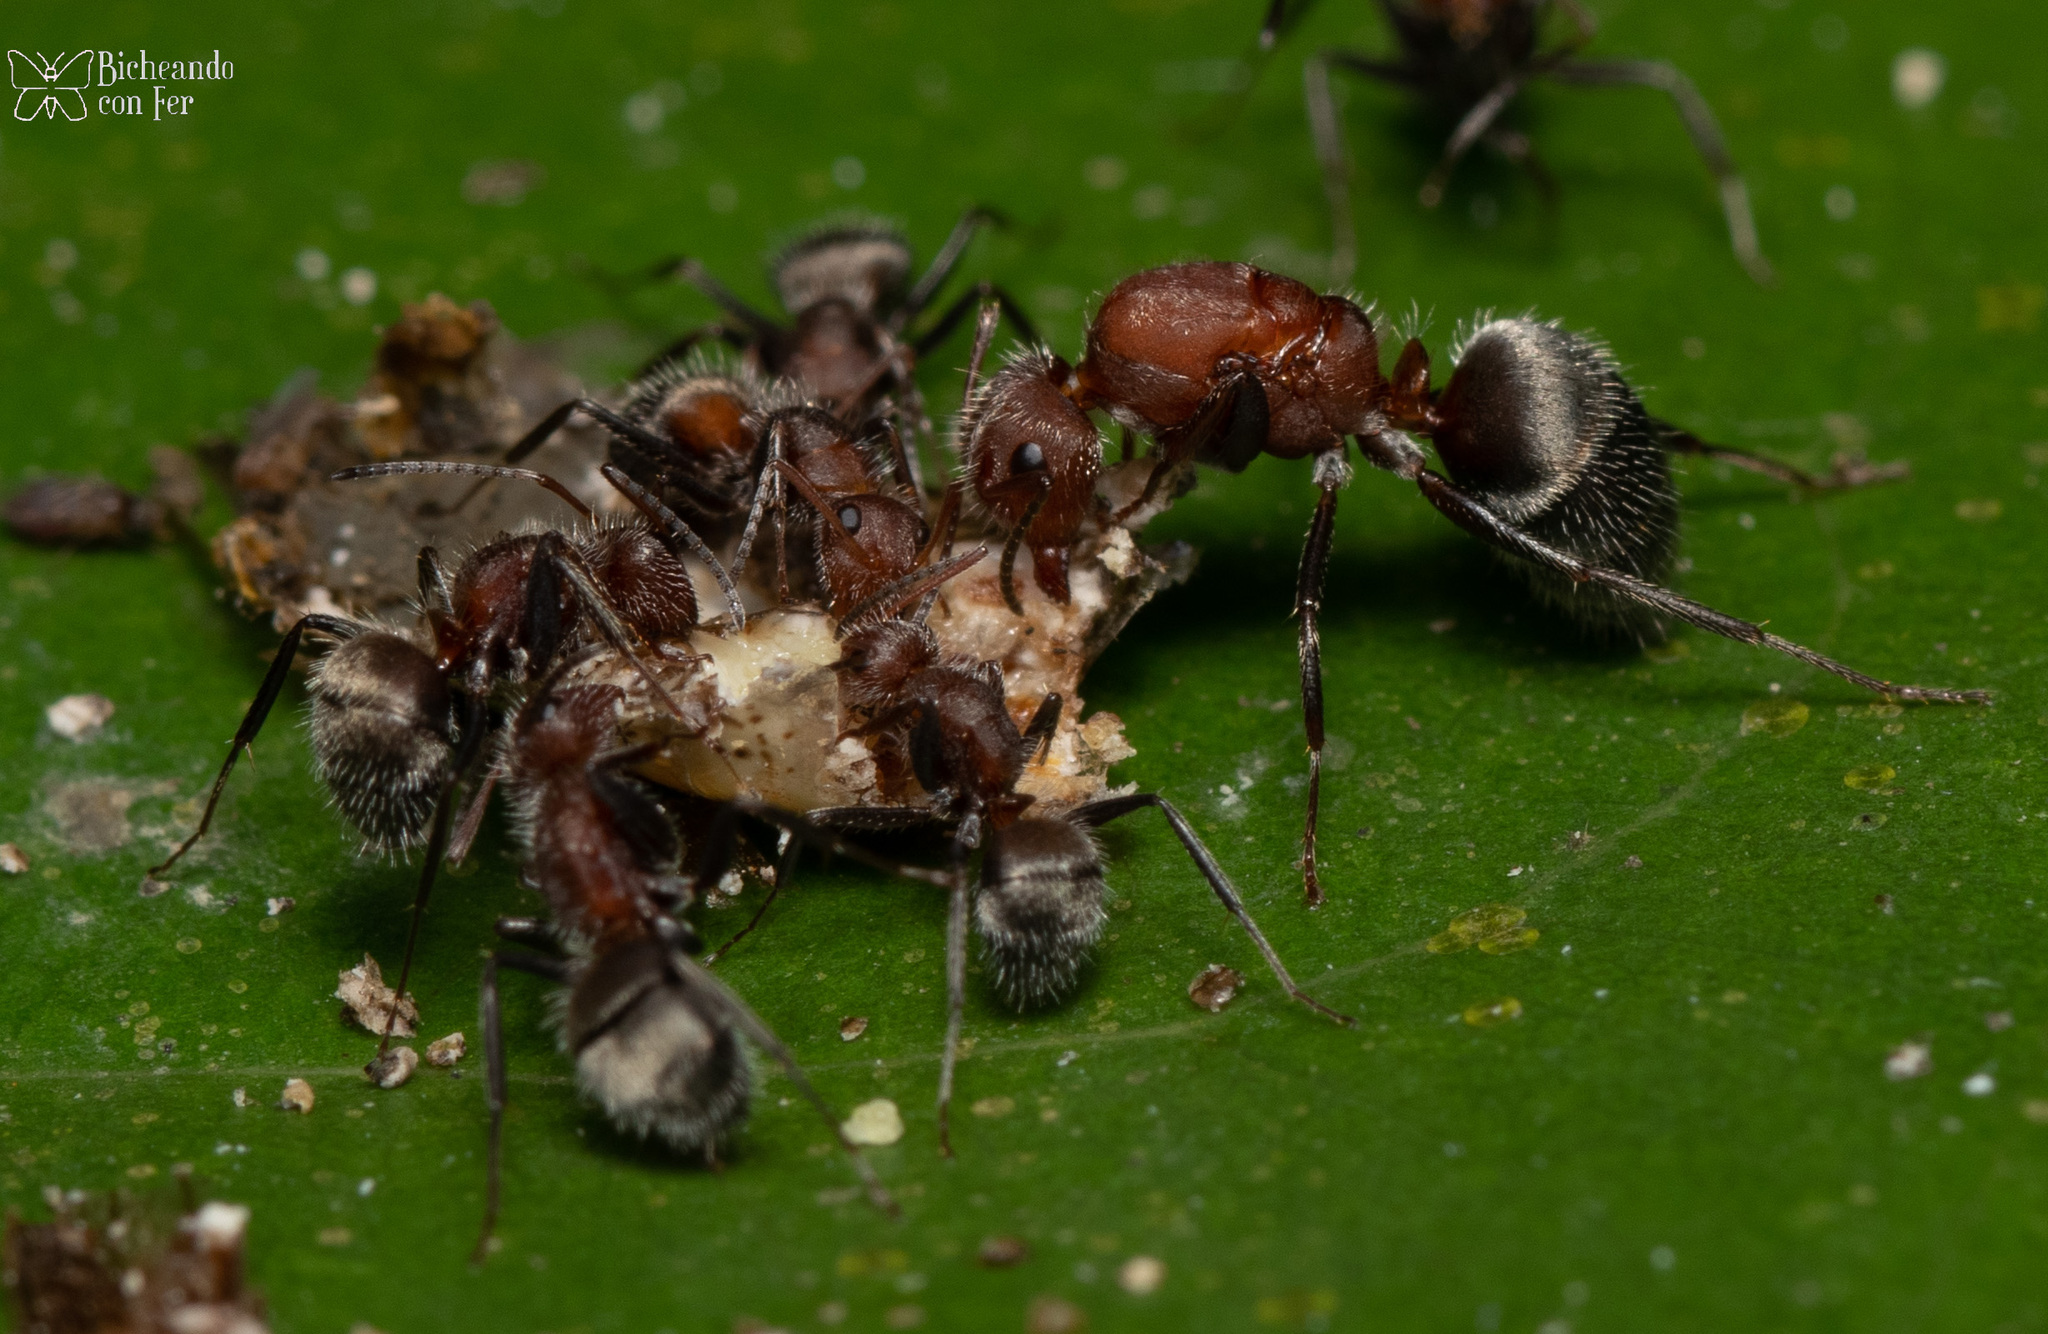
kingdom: Animalia
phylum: Arthropoda
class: Insecta
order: Hymenoptera
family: Formicidae
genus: Camponotus
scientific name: Camponotus planatus
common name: Compact carpenter ant
